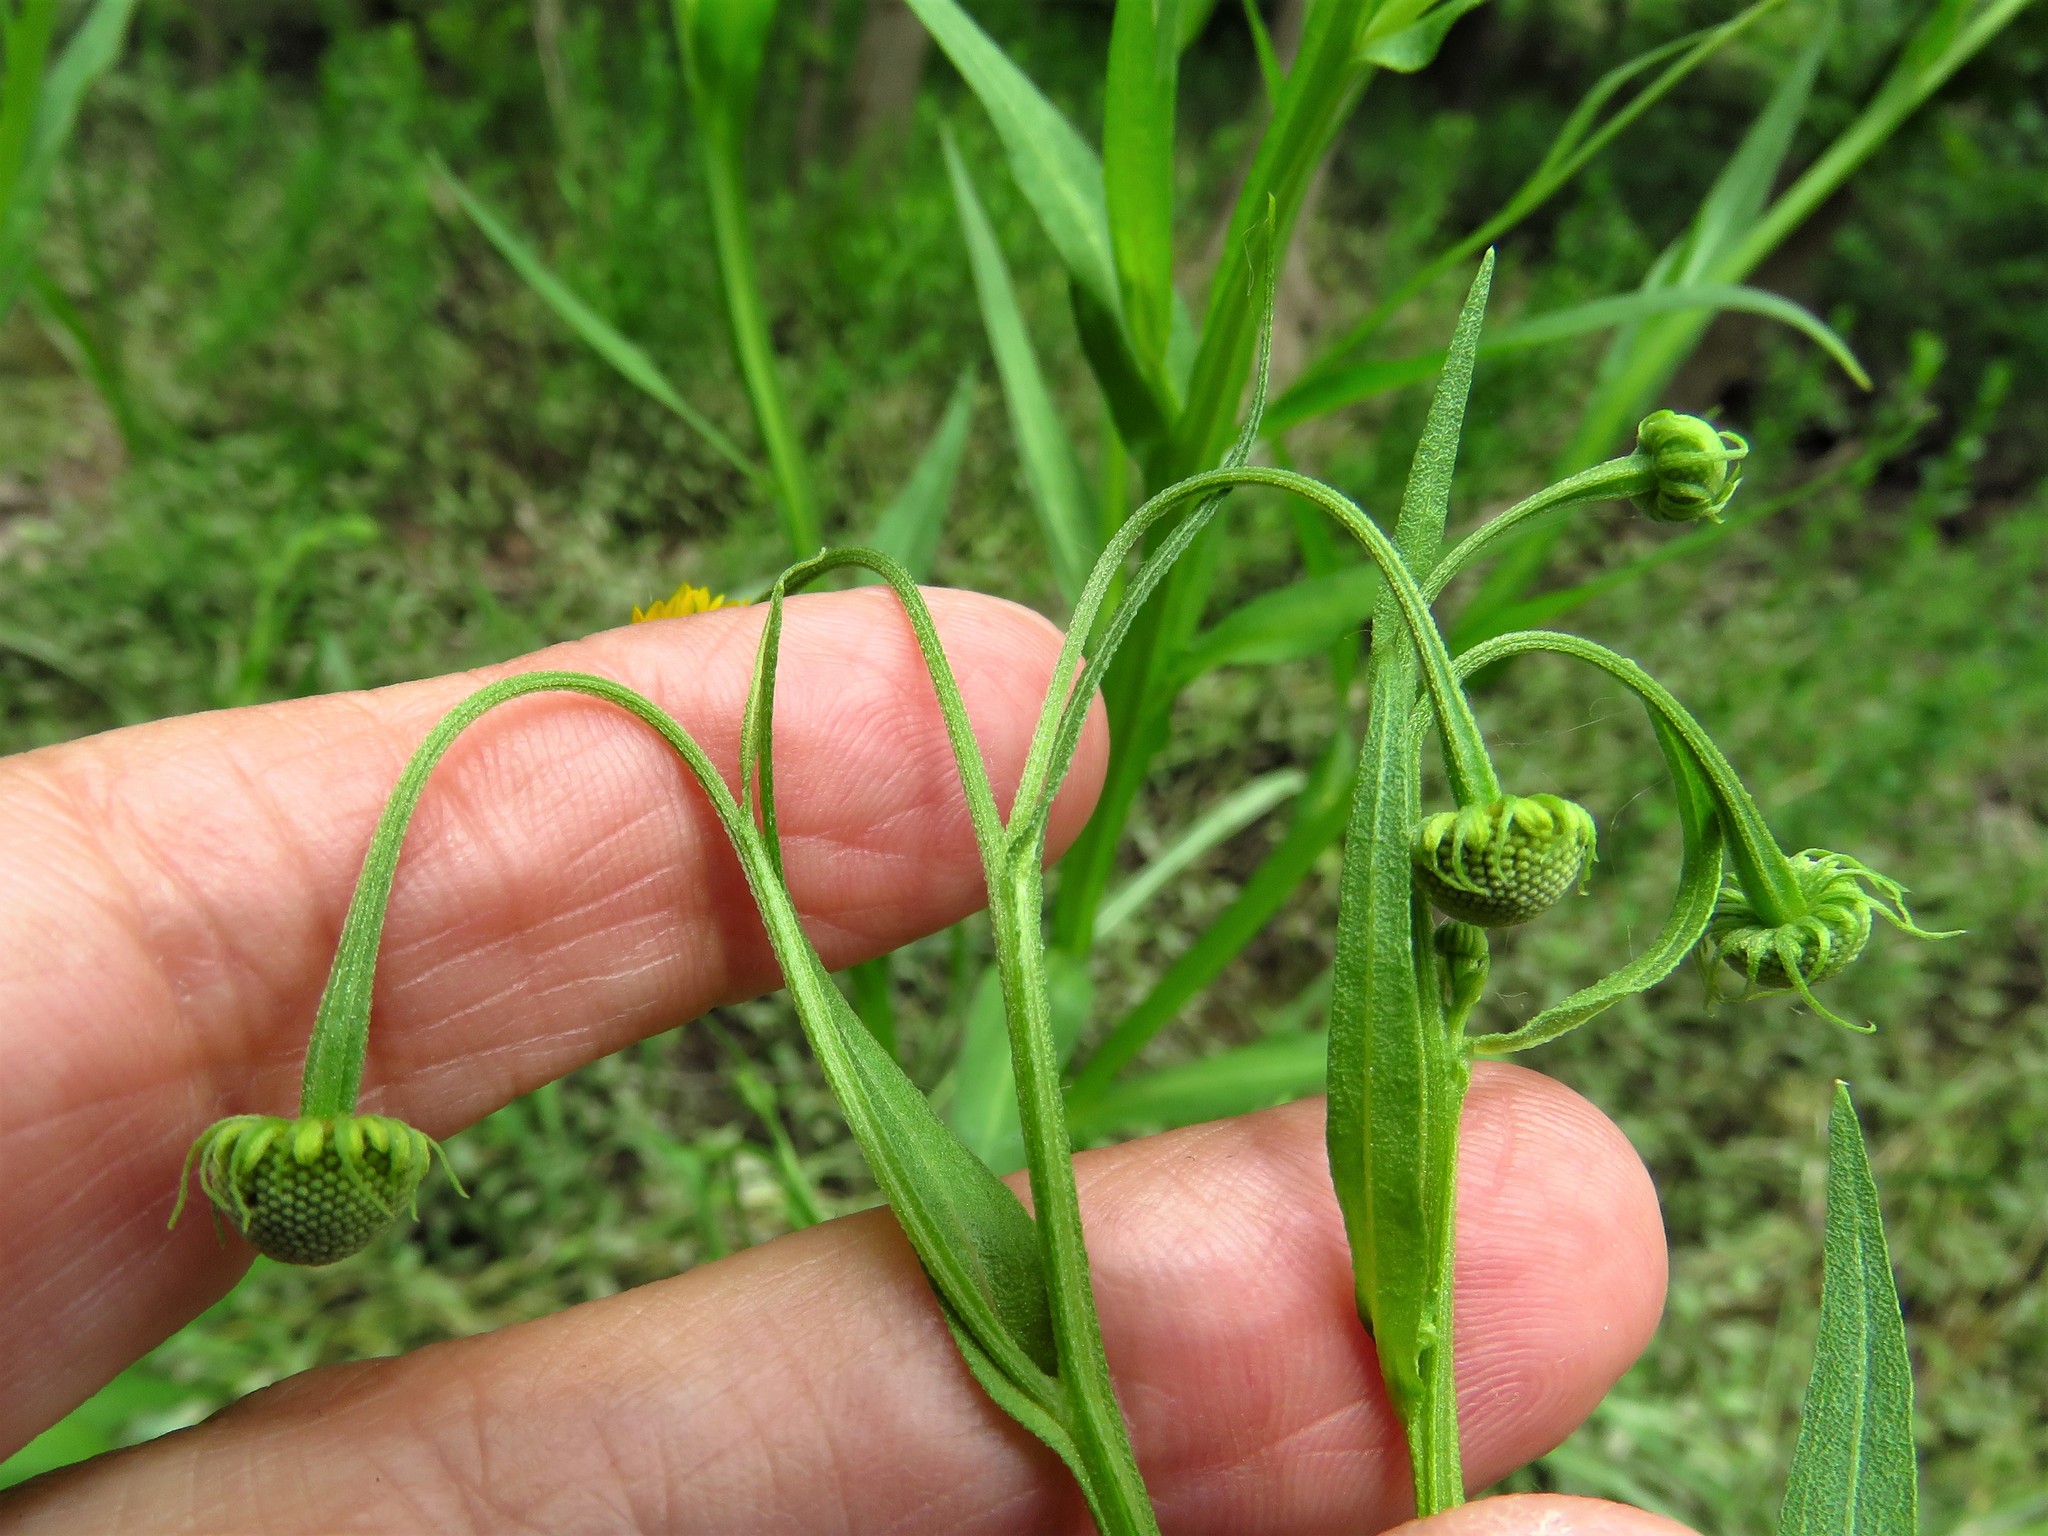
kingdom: Plantae
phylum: Tracheophyta
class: Magnoliopsida
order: Asterales
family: Asteraceae
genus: Helenium
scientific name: Helenium elegans
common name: Pretty sneezeweed
